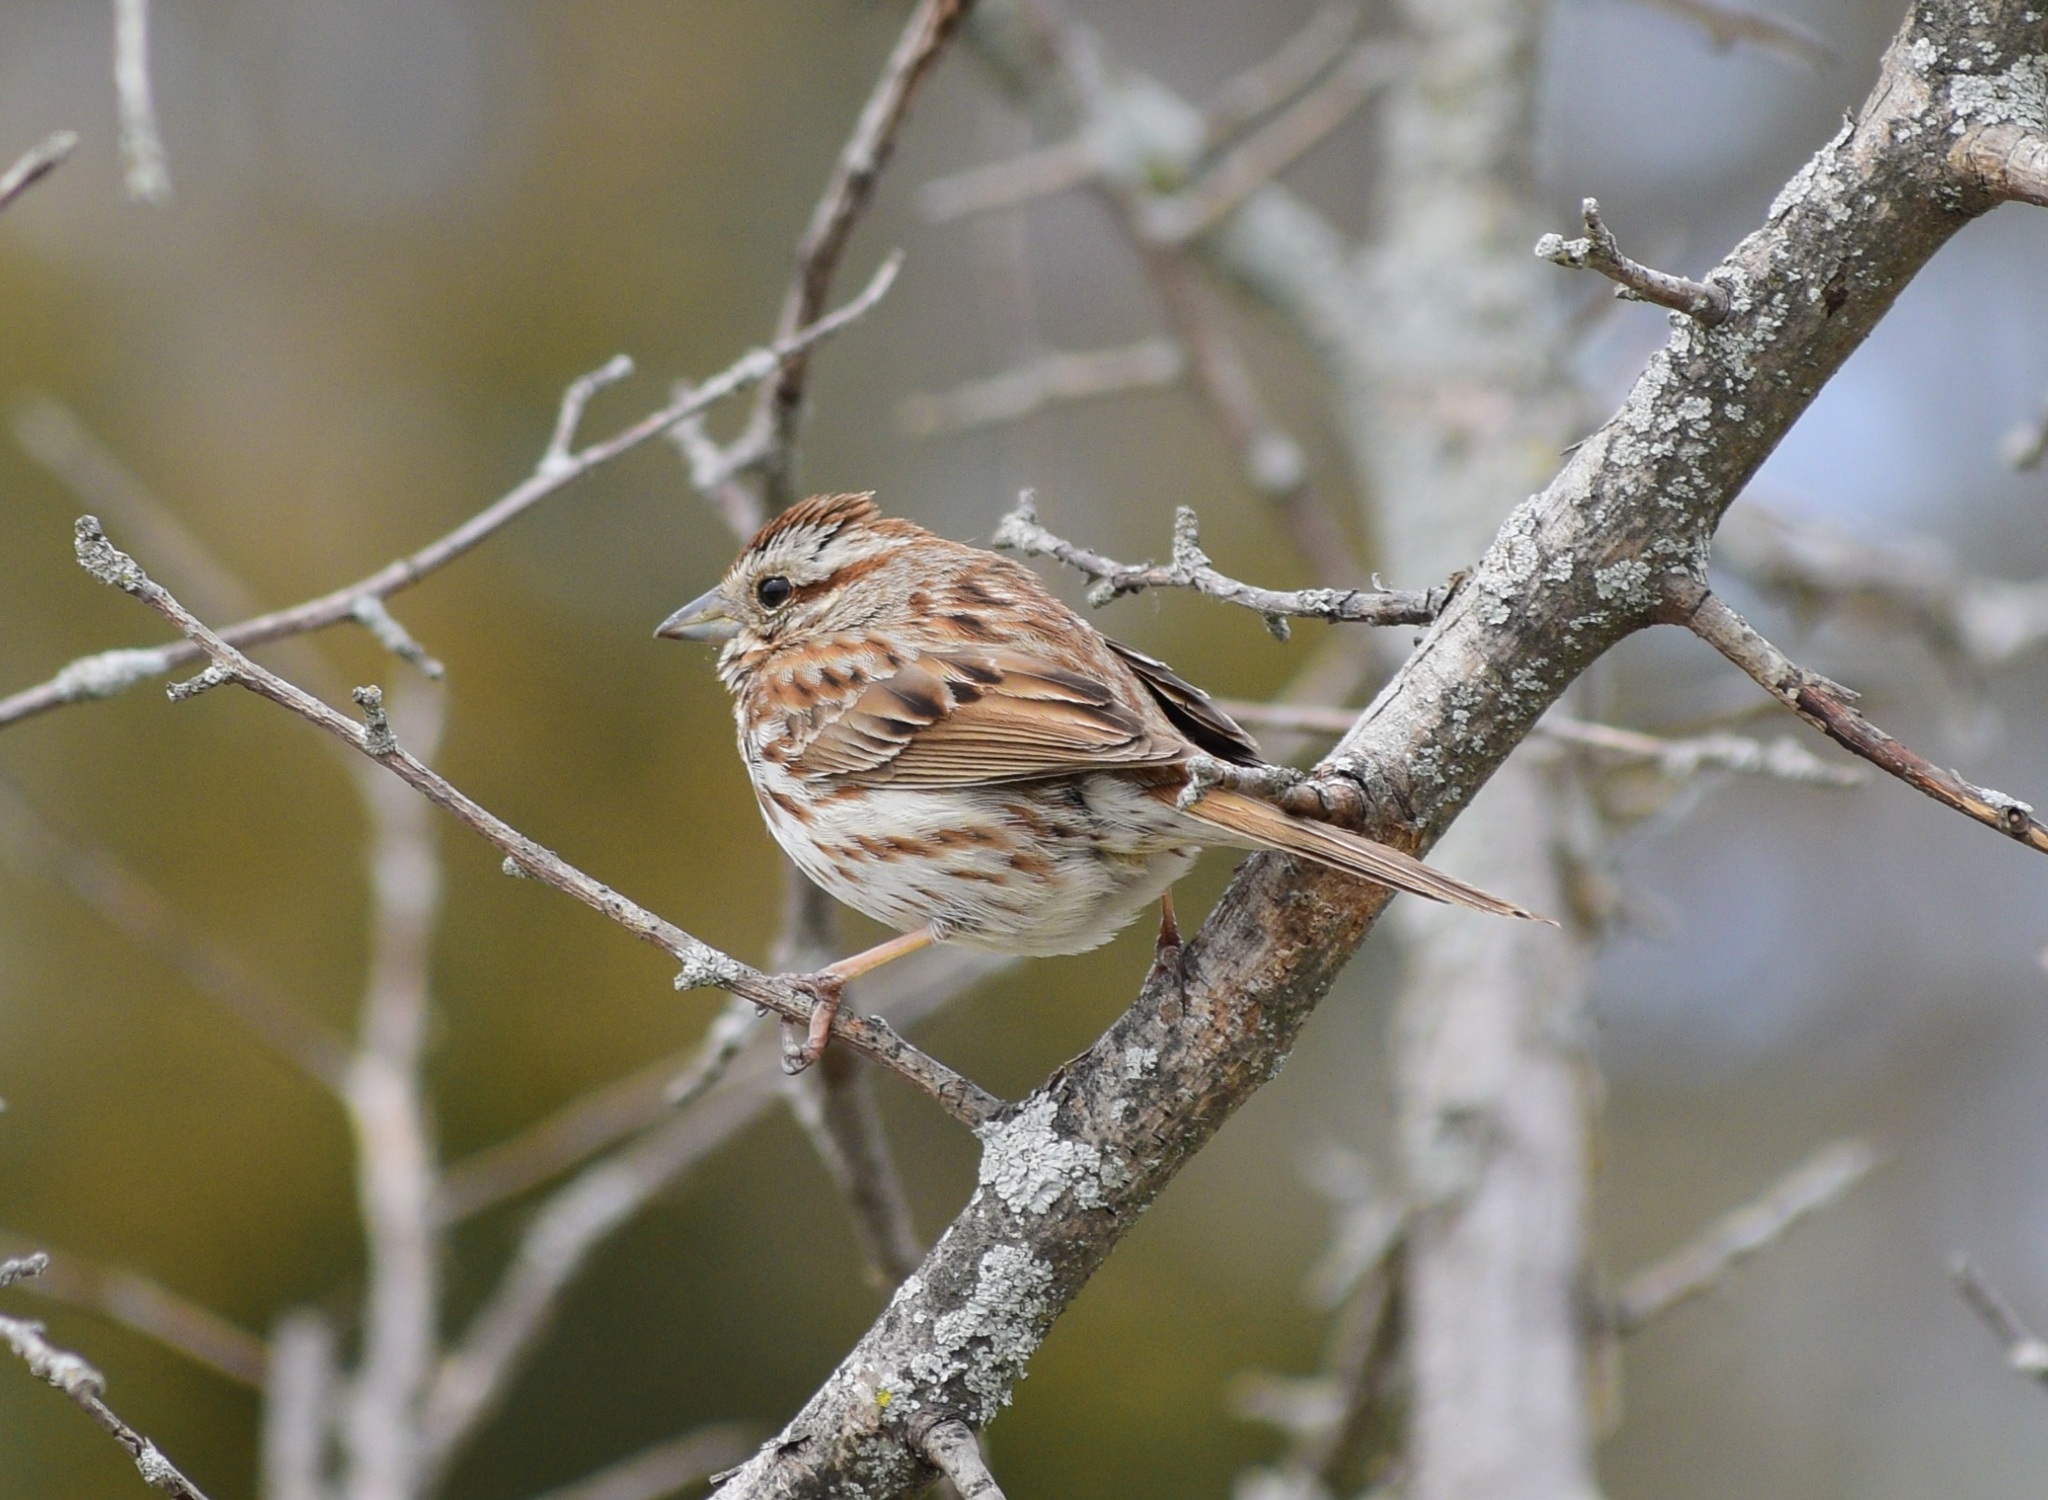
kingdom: Animalia
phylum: Chordata
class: Aves
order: Passeriformes
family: Passerellidae
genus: Melospiza
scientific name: Melospiza melodia
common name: Song sparrow
